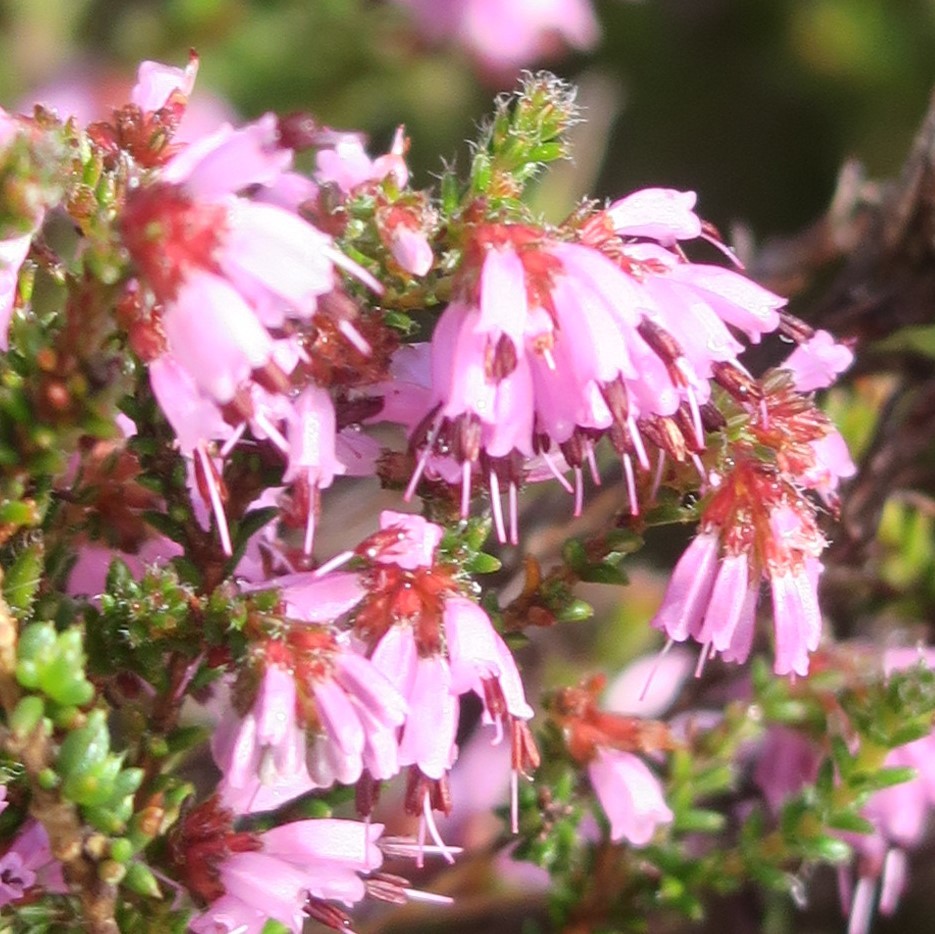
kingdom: Plantae
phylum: Tracheophyta
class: Magnoliopsida
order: Ericales
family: Ericaceae
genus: Erica
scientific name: Erica glabella
